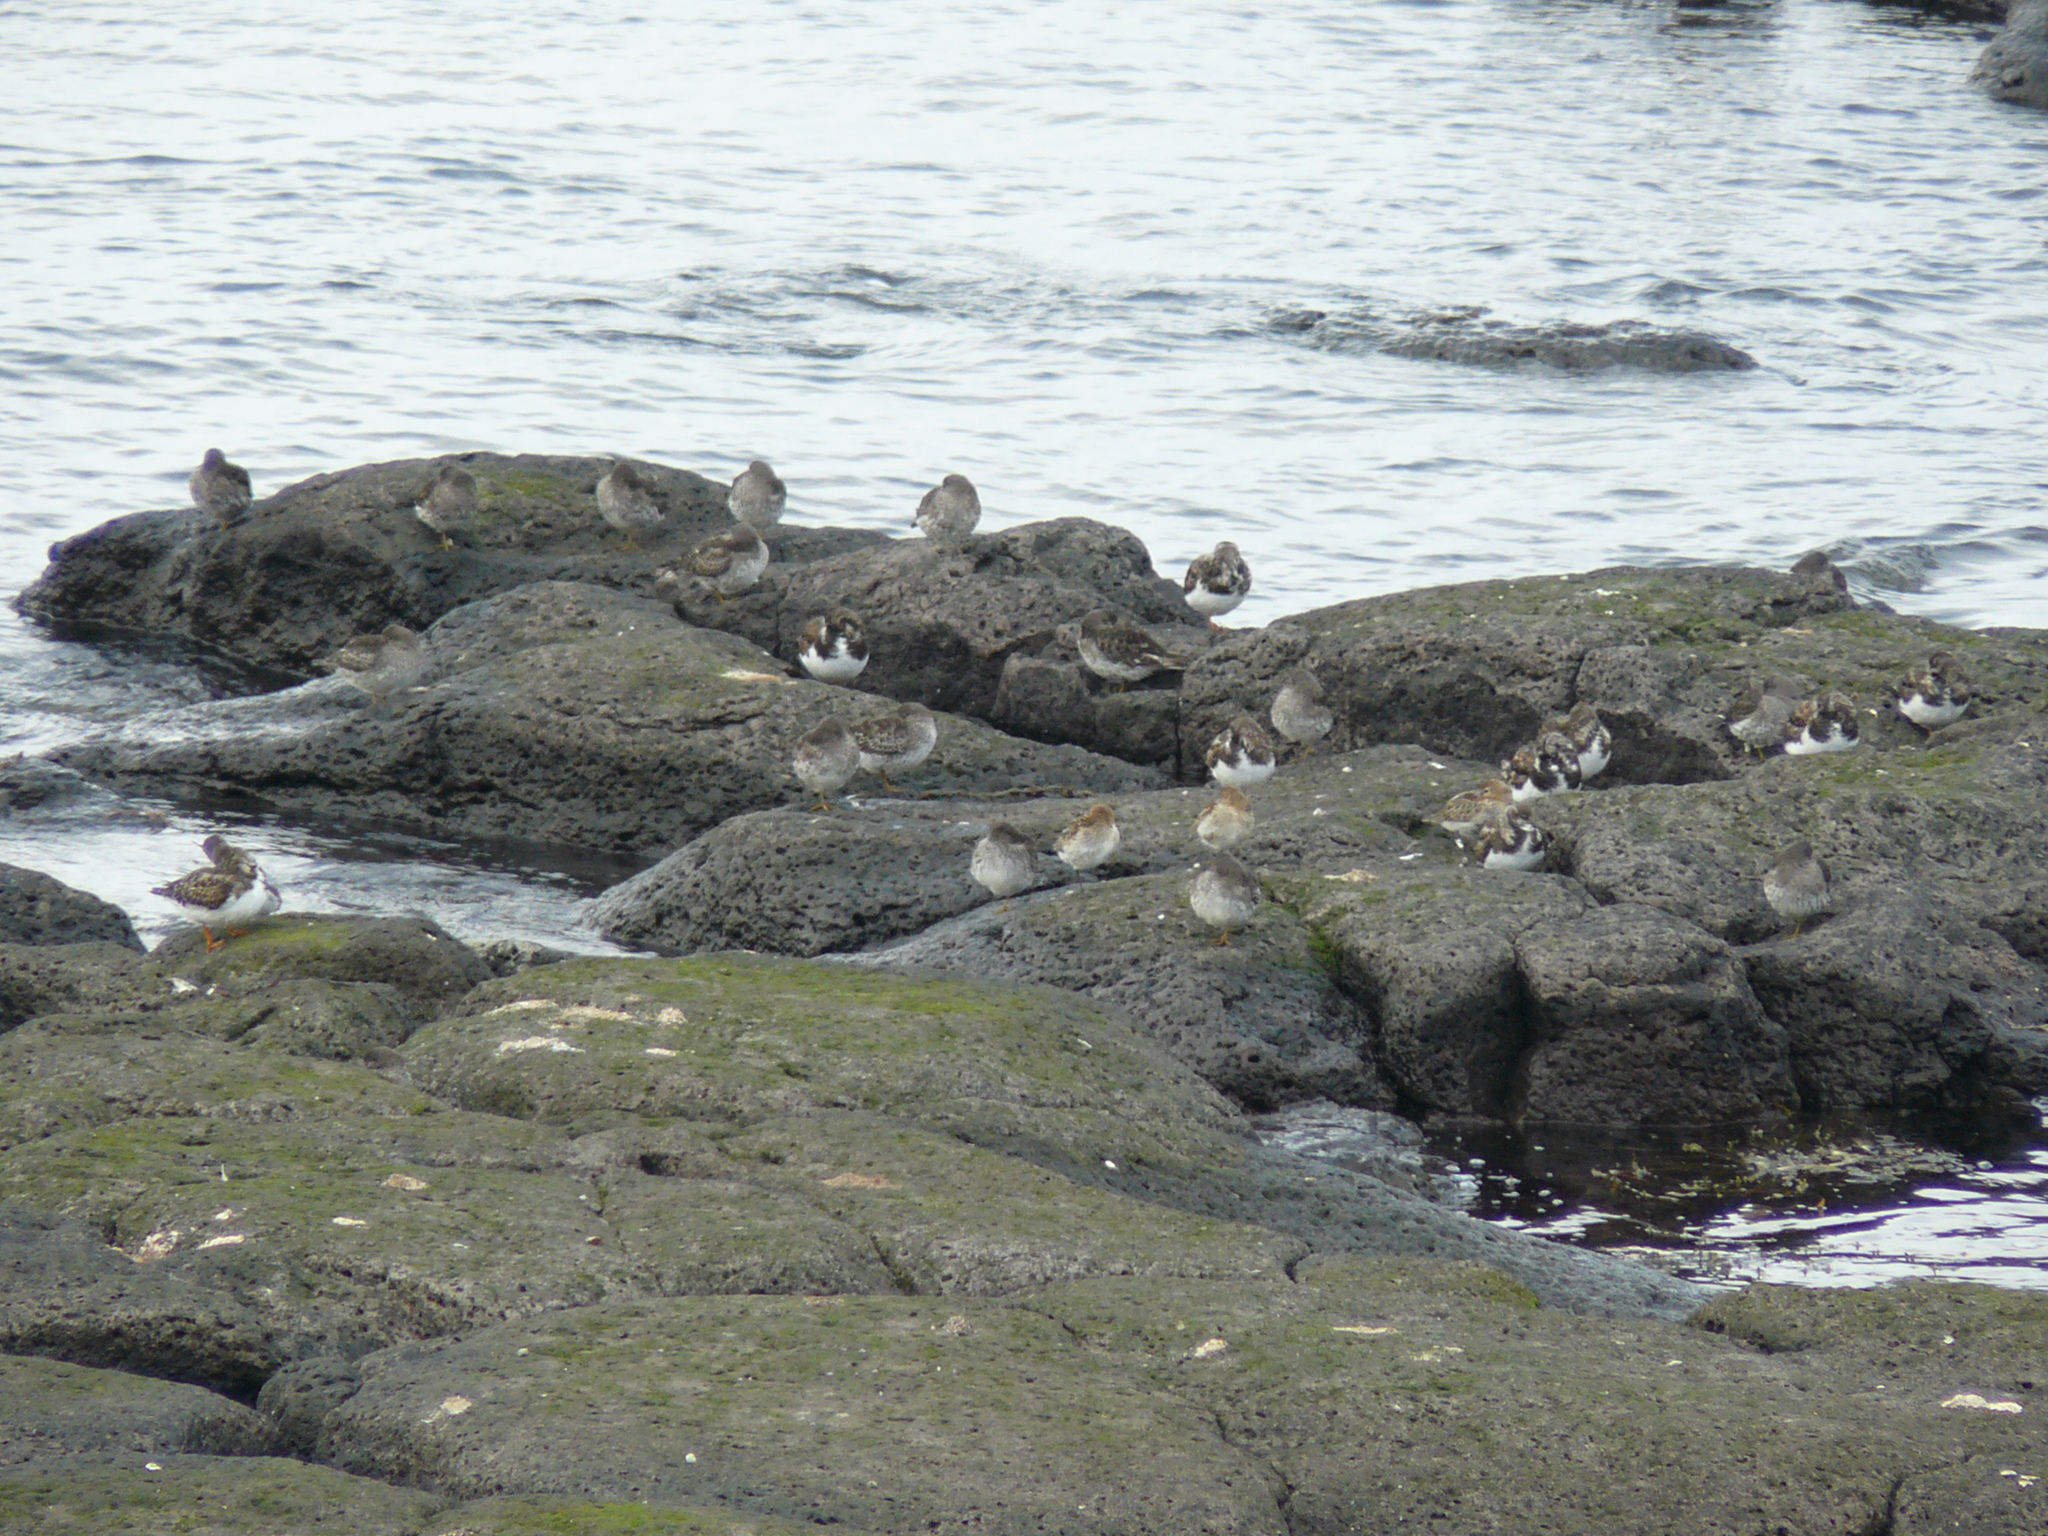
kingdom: Animalia
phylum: Chordata
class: Aves
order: Charadriiformes
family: Scolopacidae
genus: Arenaria
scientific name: Arenaria interpres
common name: Ruddy turnstone
